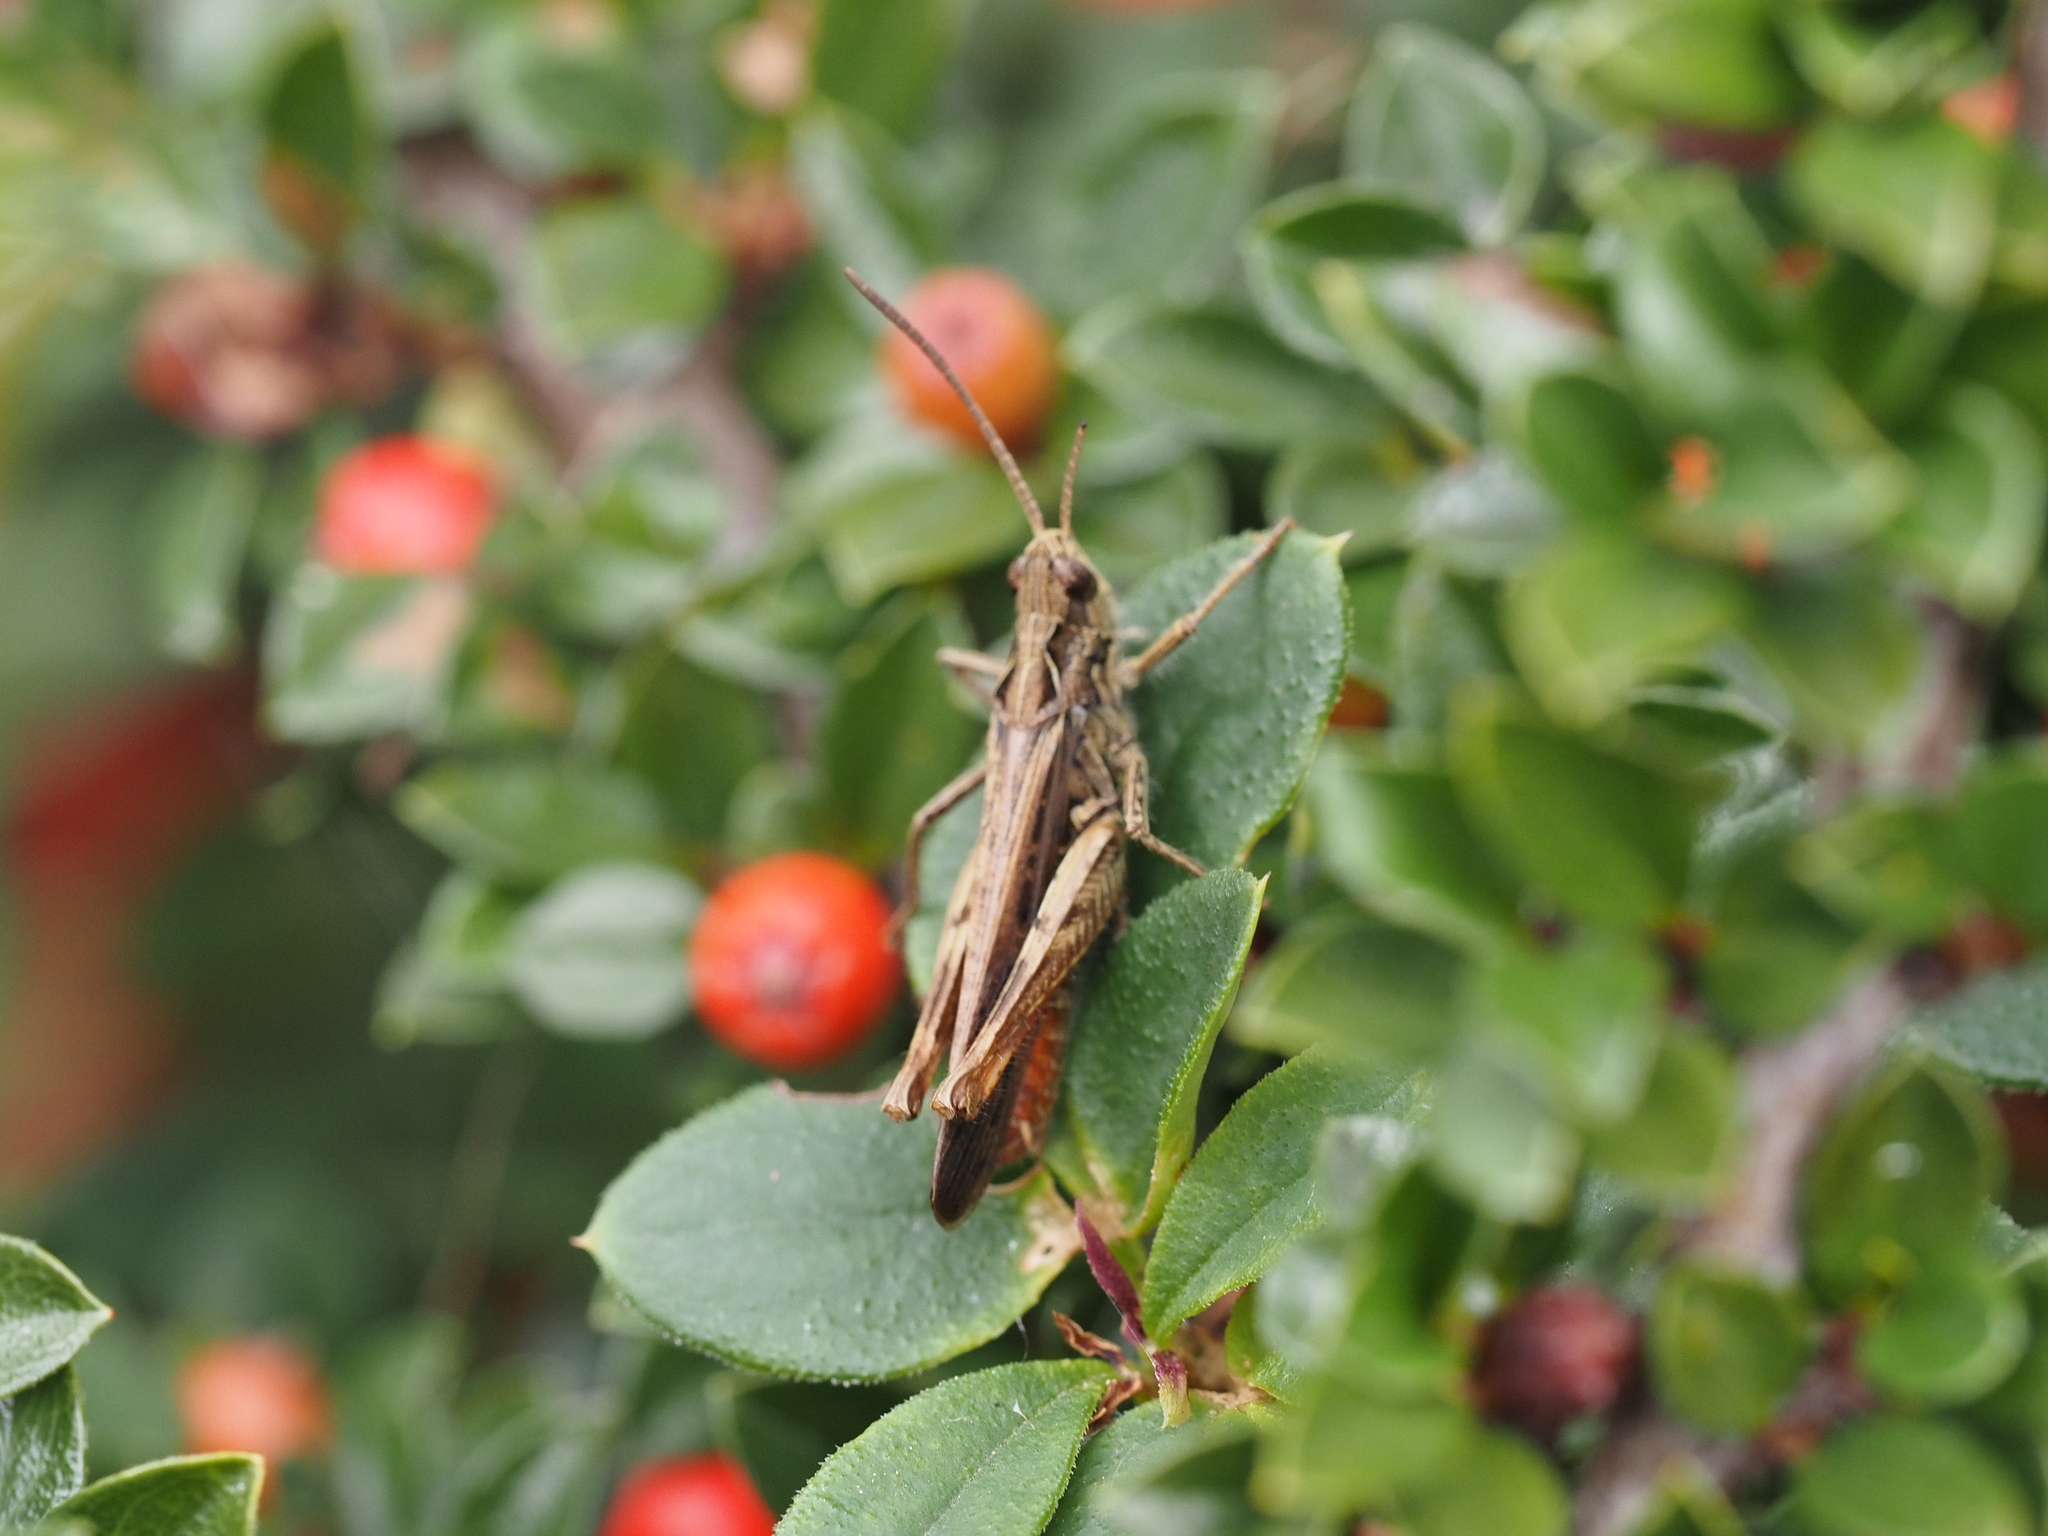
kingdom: Animalia
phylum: Arthropoda
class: Insecta
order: Orthoptera
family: Acrididae
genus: Chorthippus
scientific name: Chorthippus brunneus
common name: Field grasshopper
